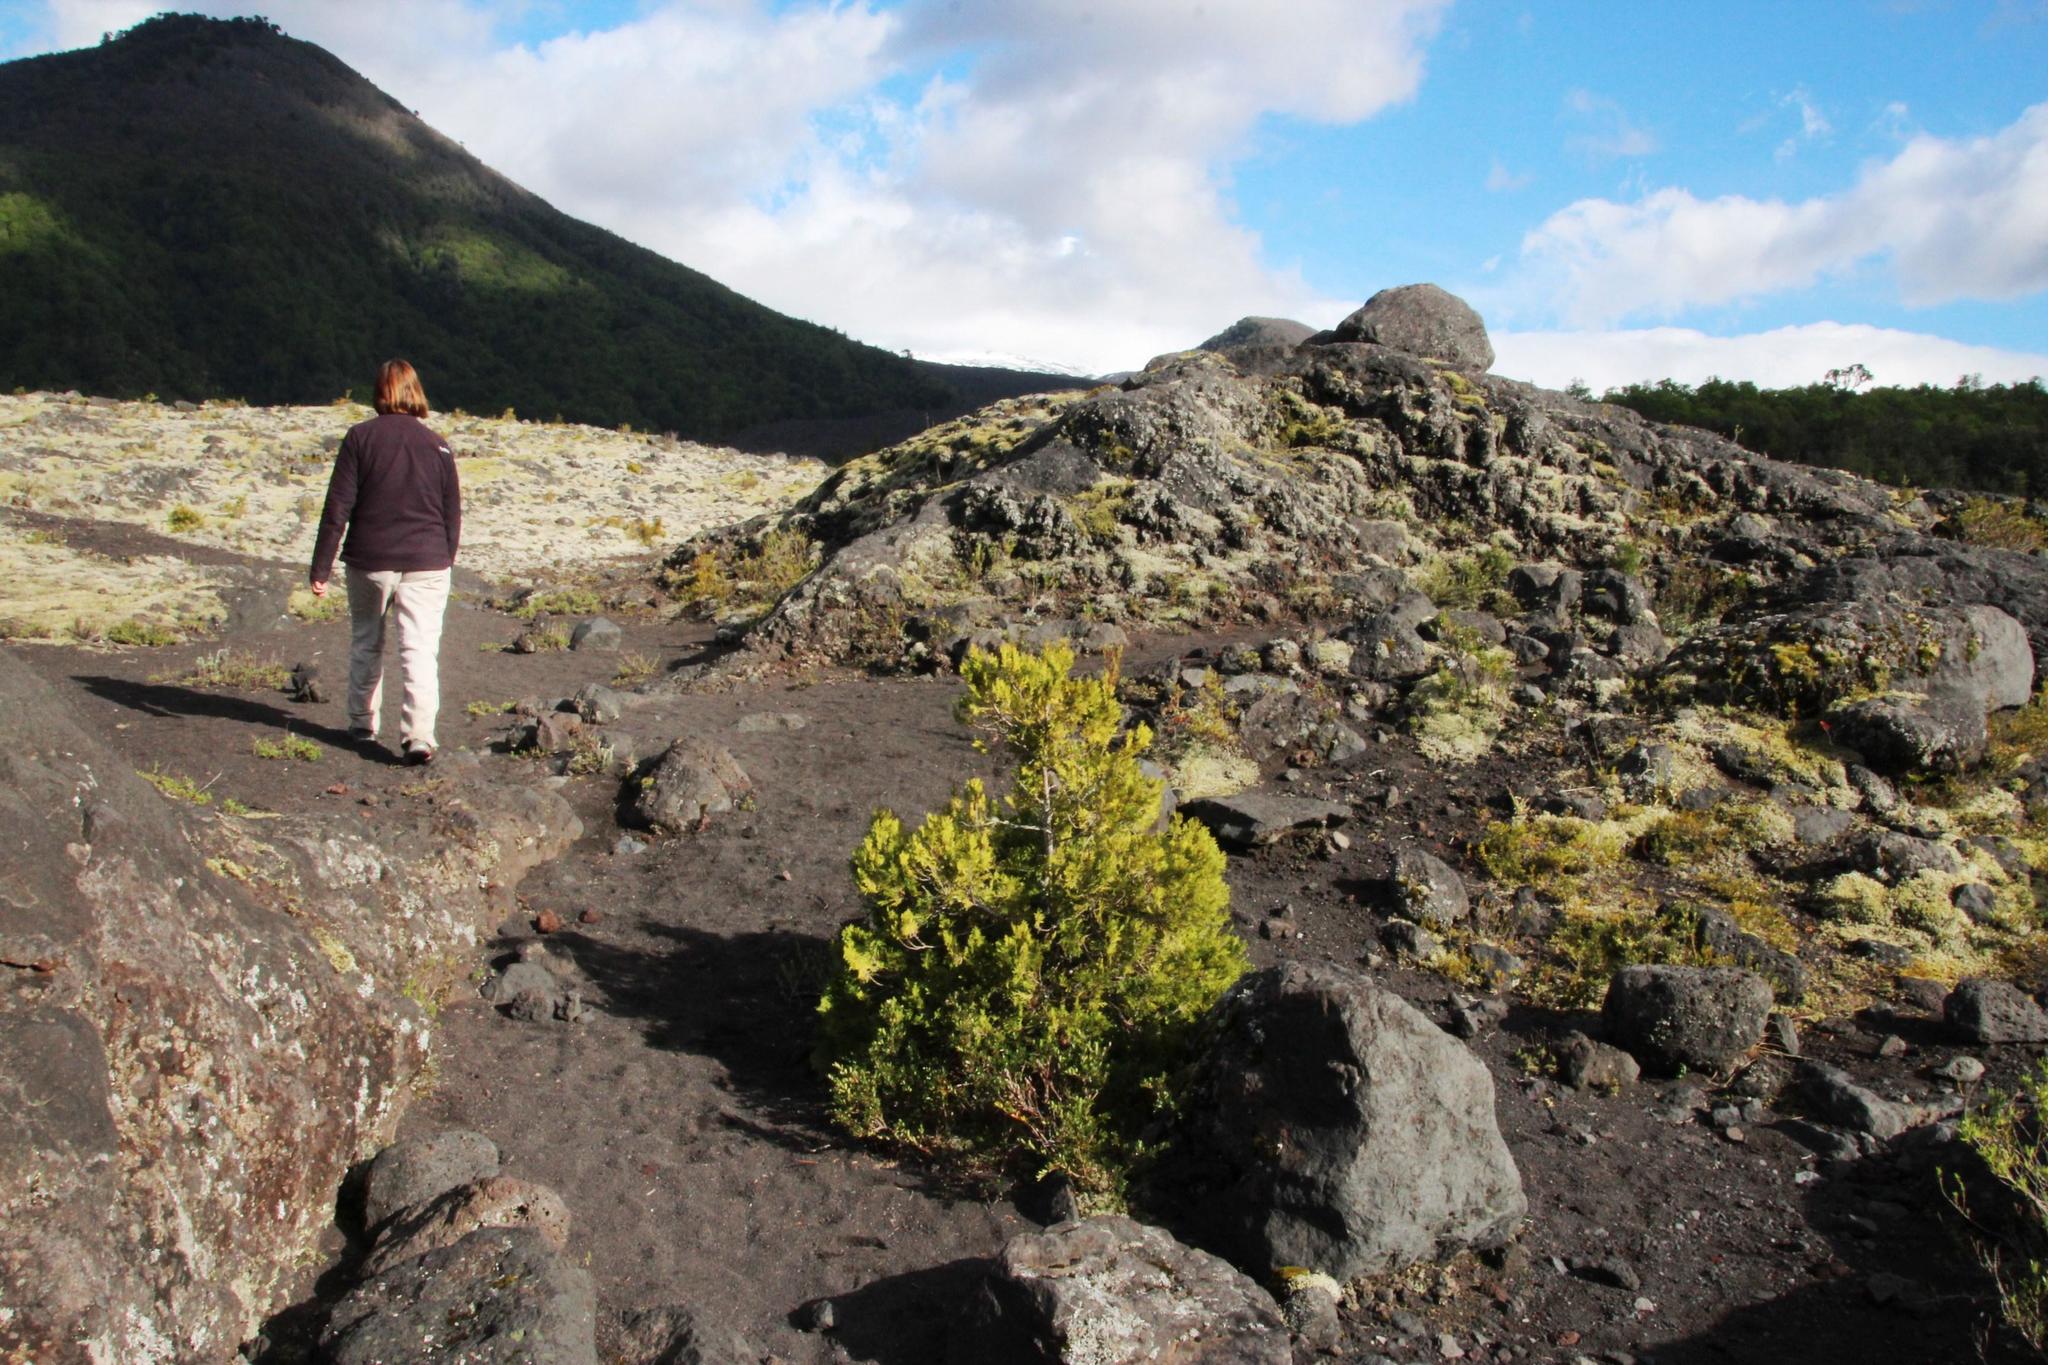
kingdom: Plantae
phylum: Tracheophyta
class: Pinopsida
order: Pinales
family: Cupressaceae
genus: Austrocedrus
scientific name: Austrocedrus chilensis
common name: Chilean incense-cedar
